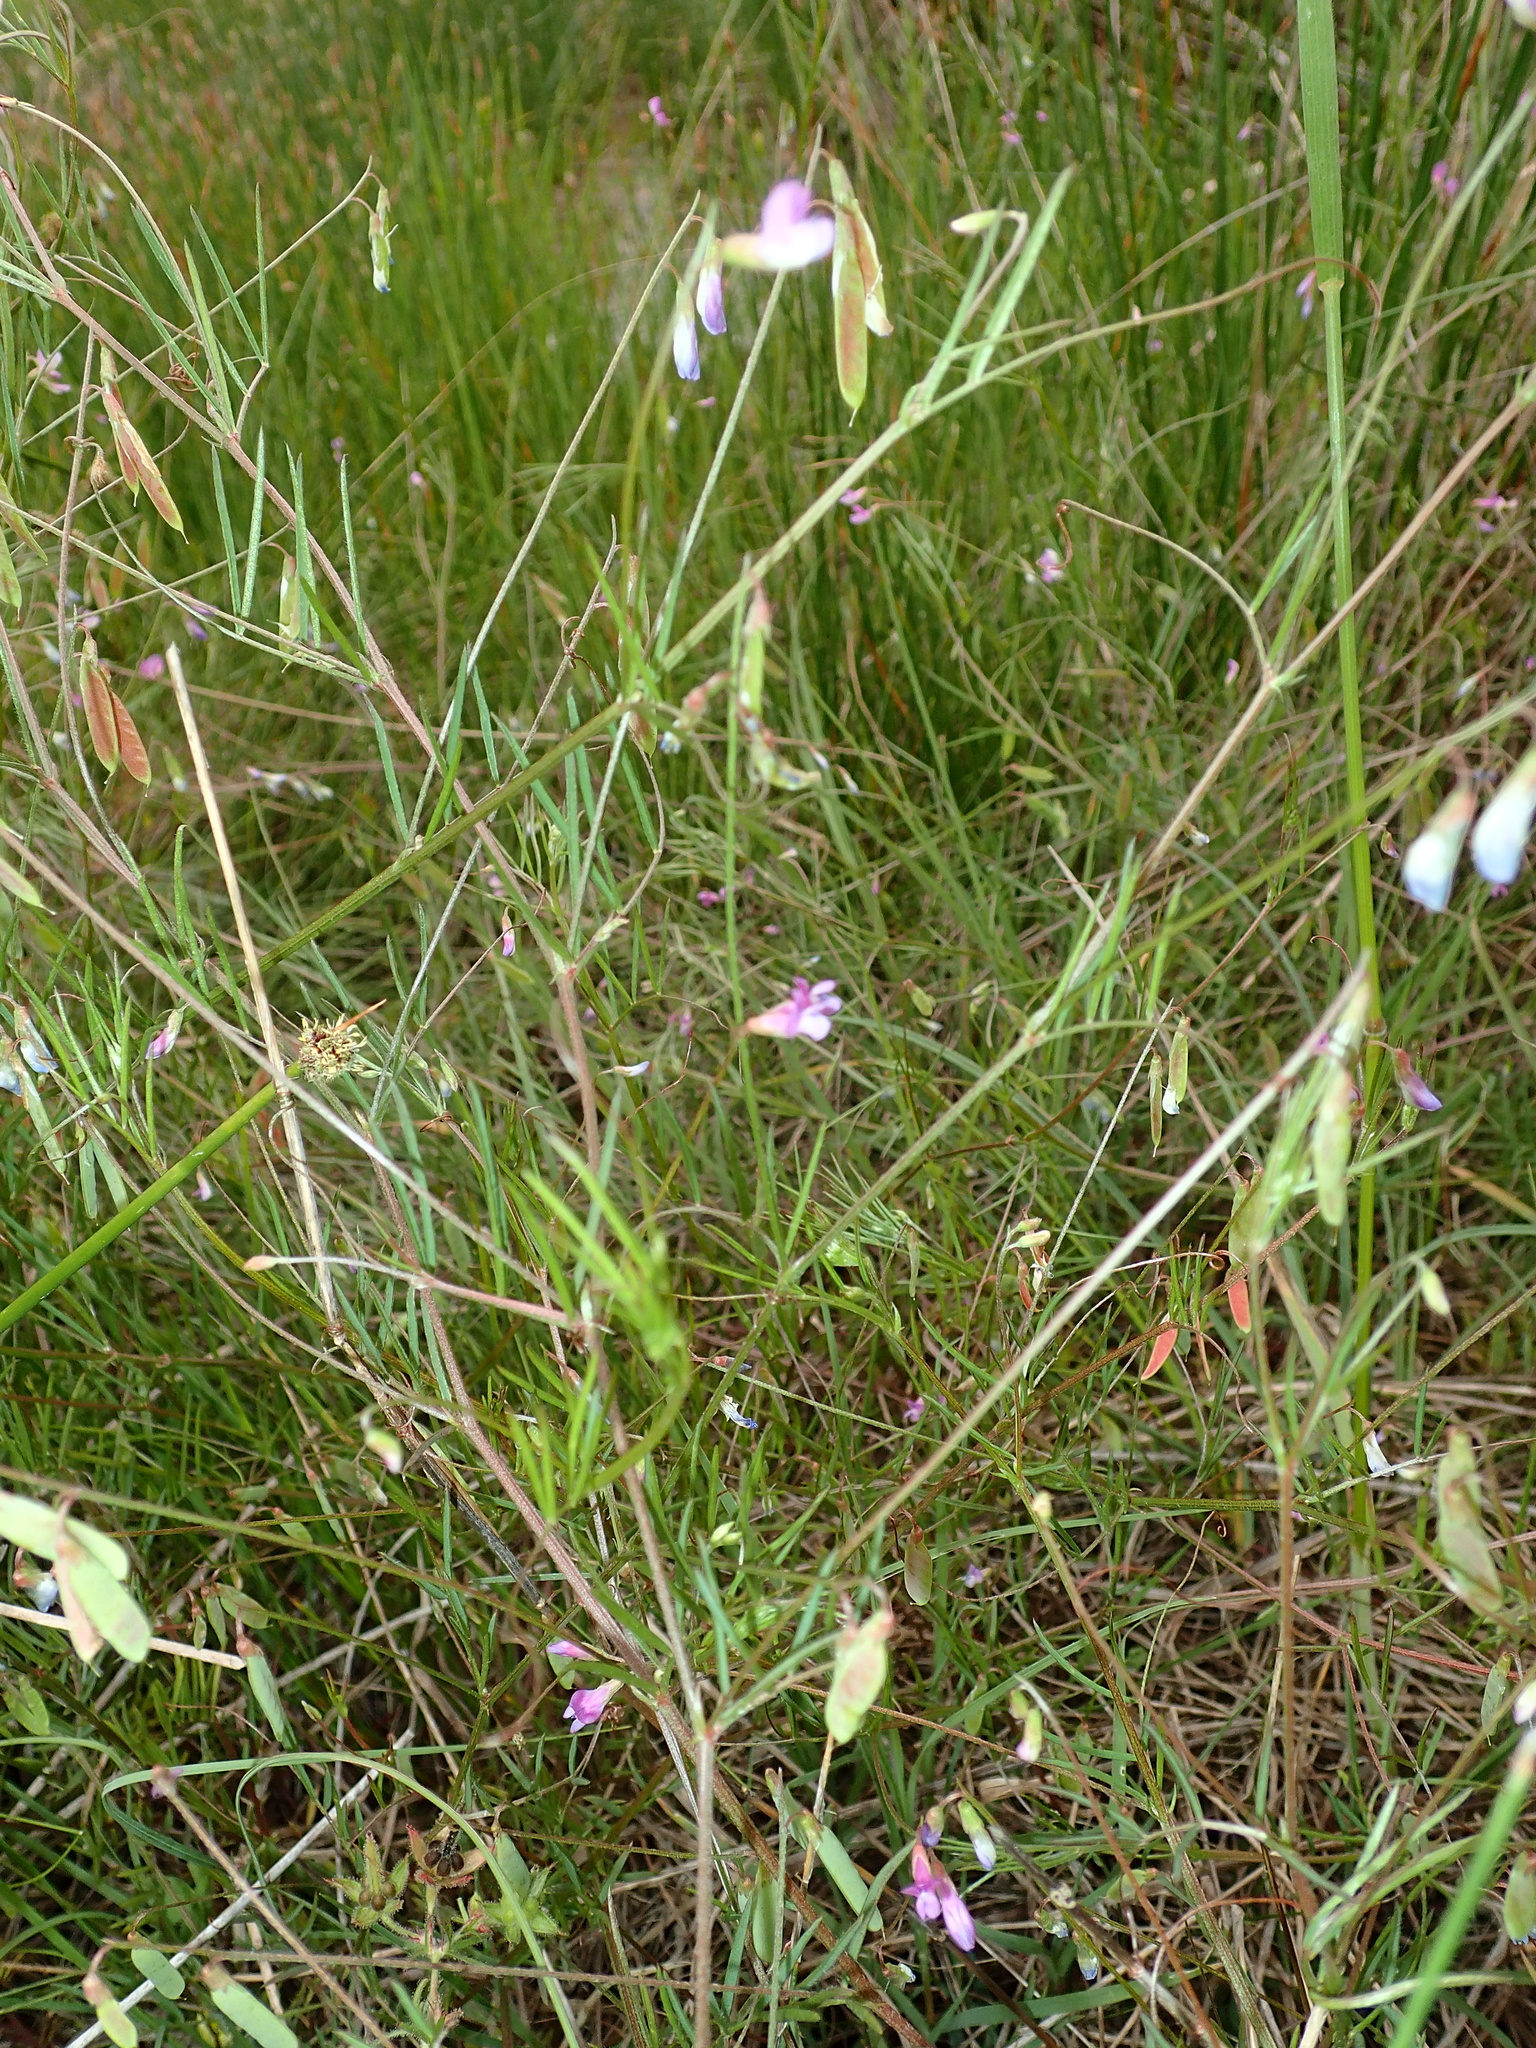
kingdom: Plantae
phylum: Tracheophyta
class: Magnoliopsida
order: Fabales
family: Fabaceae
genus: Vicia
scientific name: Vicia parviflora
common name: Slender tare
